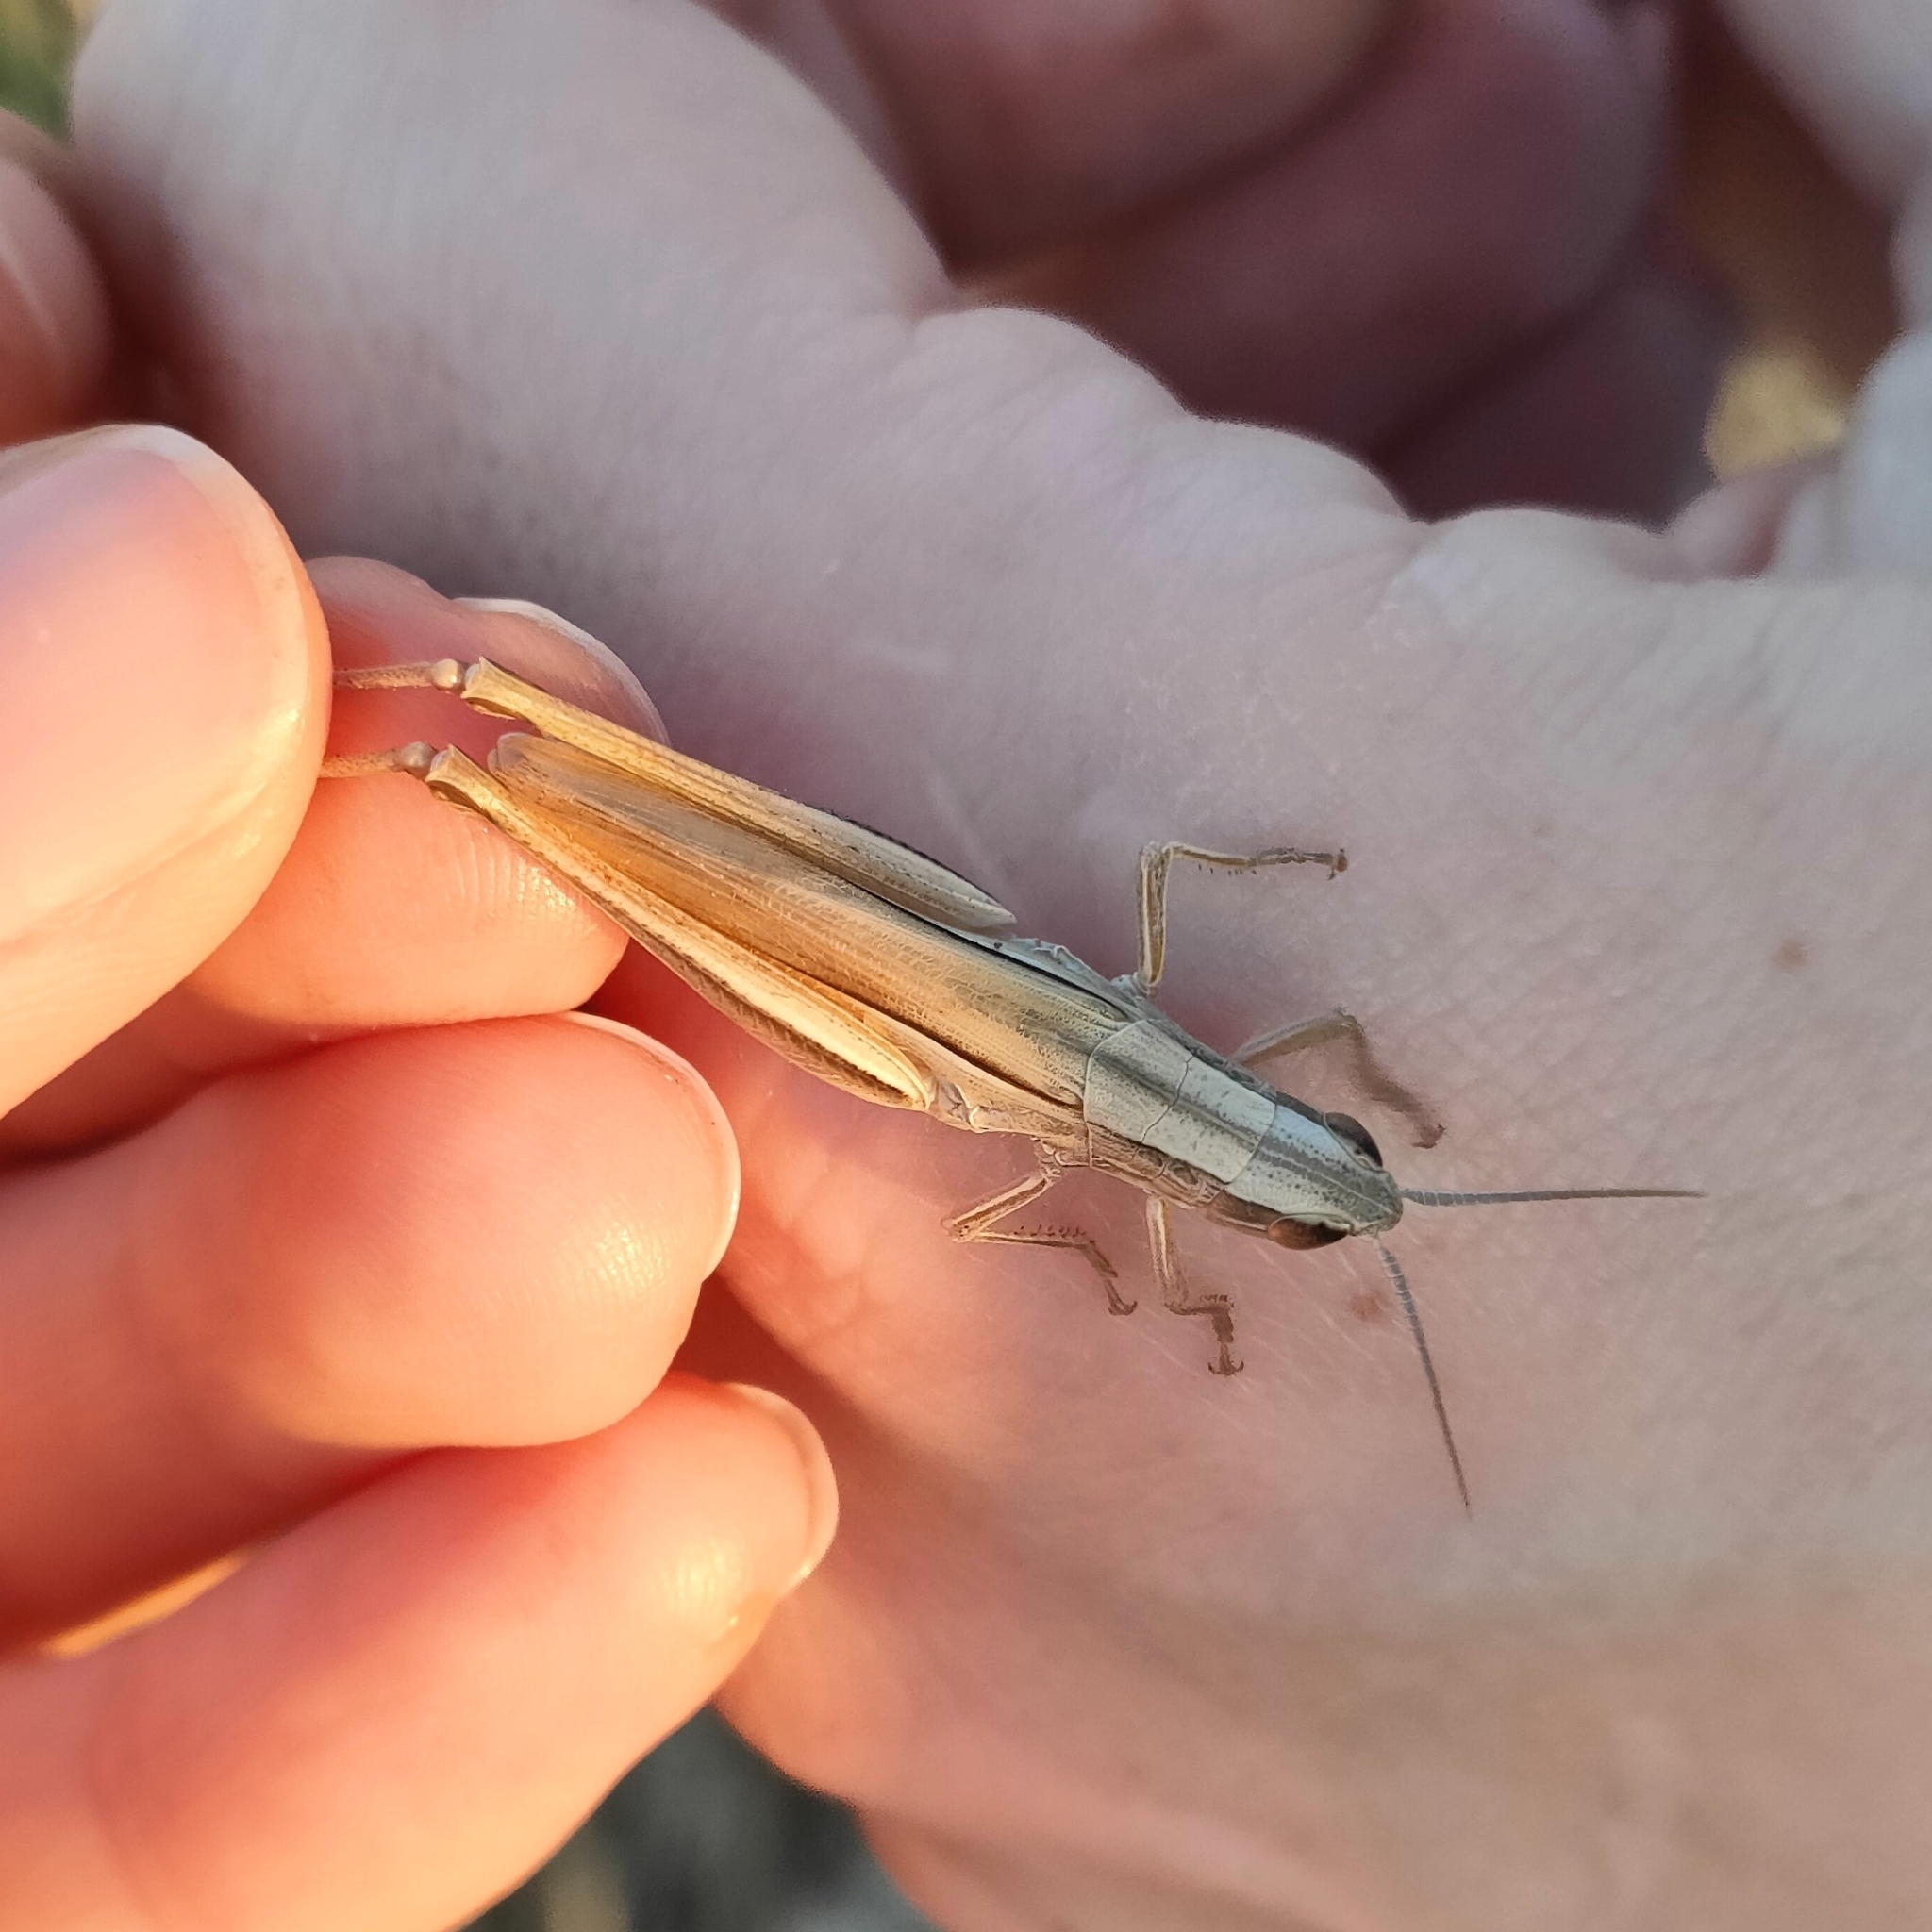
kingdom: Animalia
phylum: Arthropoda
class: Insecta
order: Orthoptera
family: Acrididae
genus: Euchorthippus
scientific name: Euchorthippus pulvinatus
